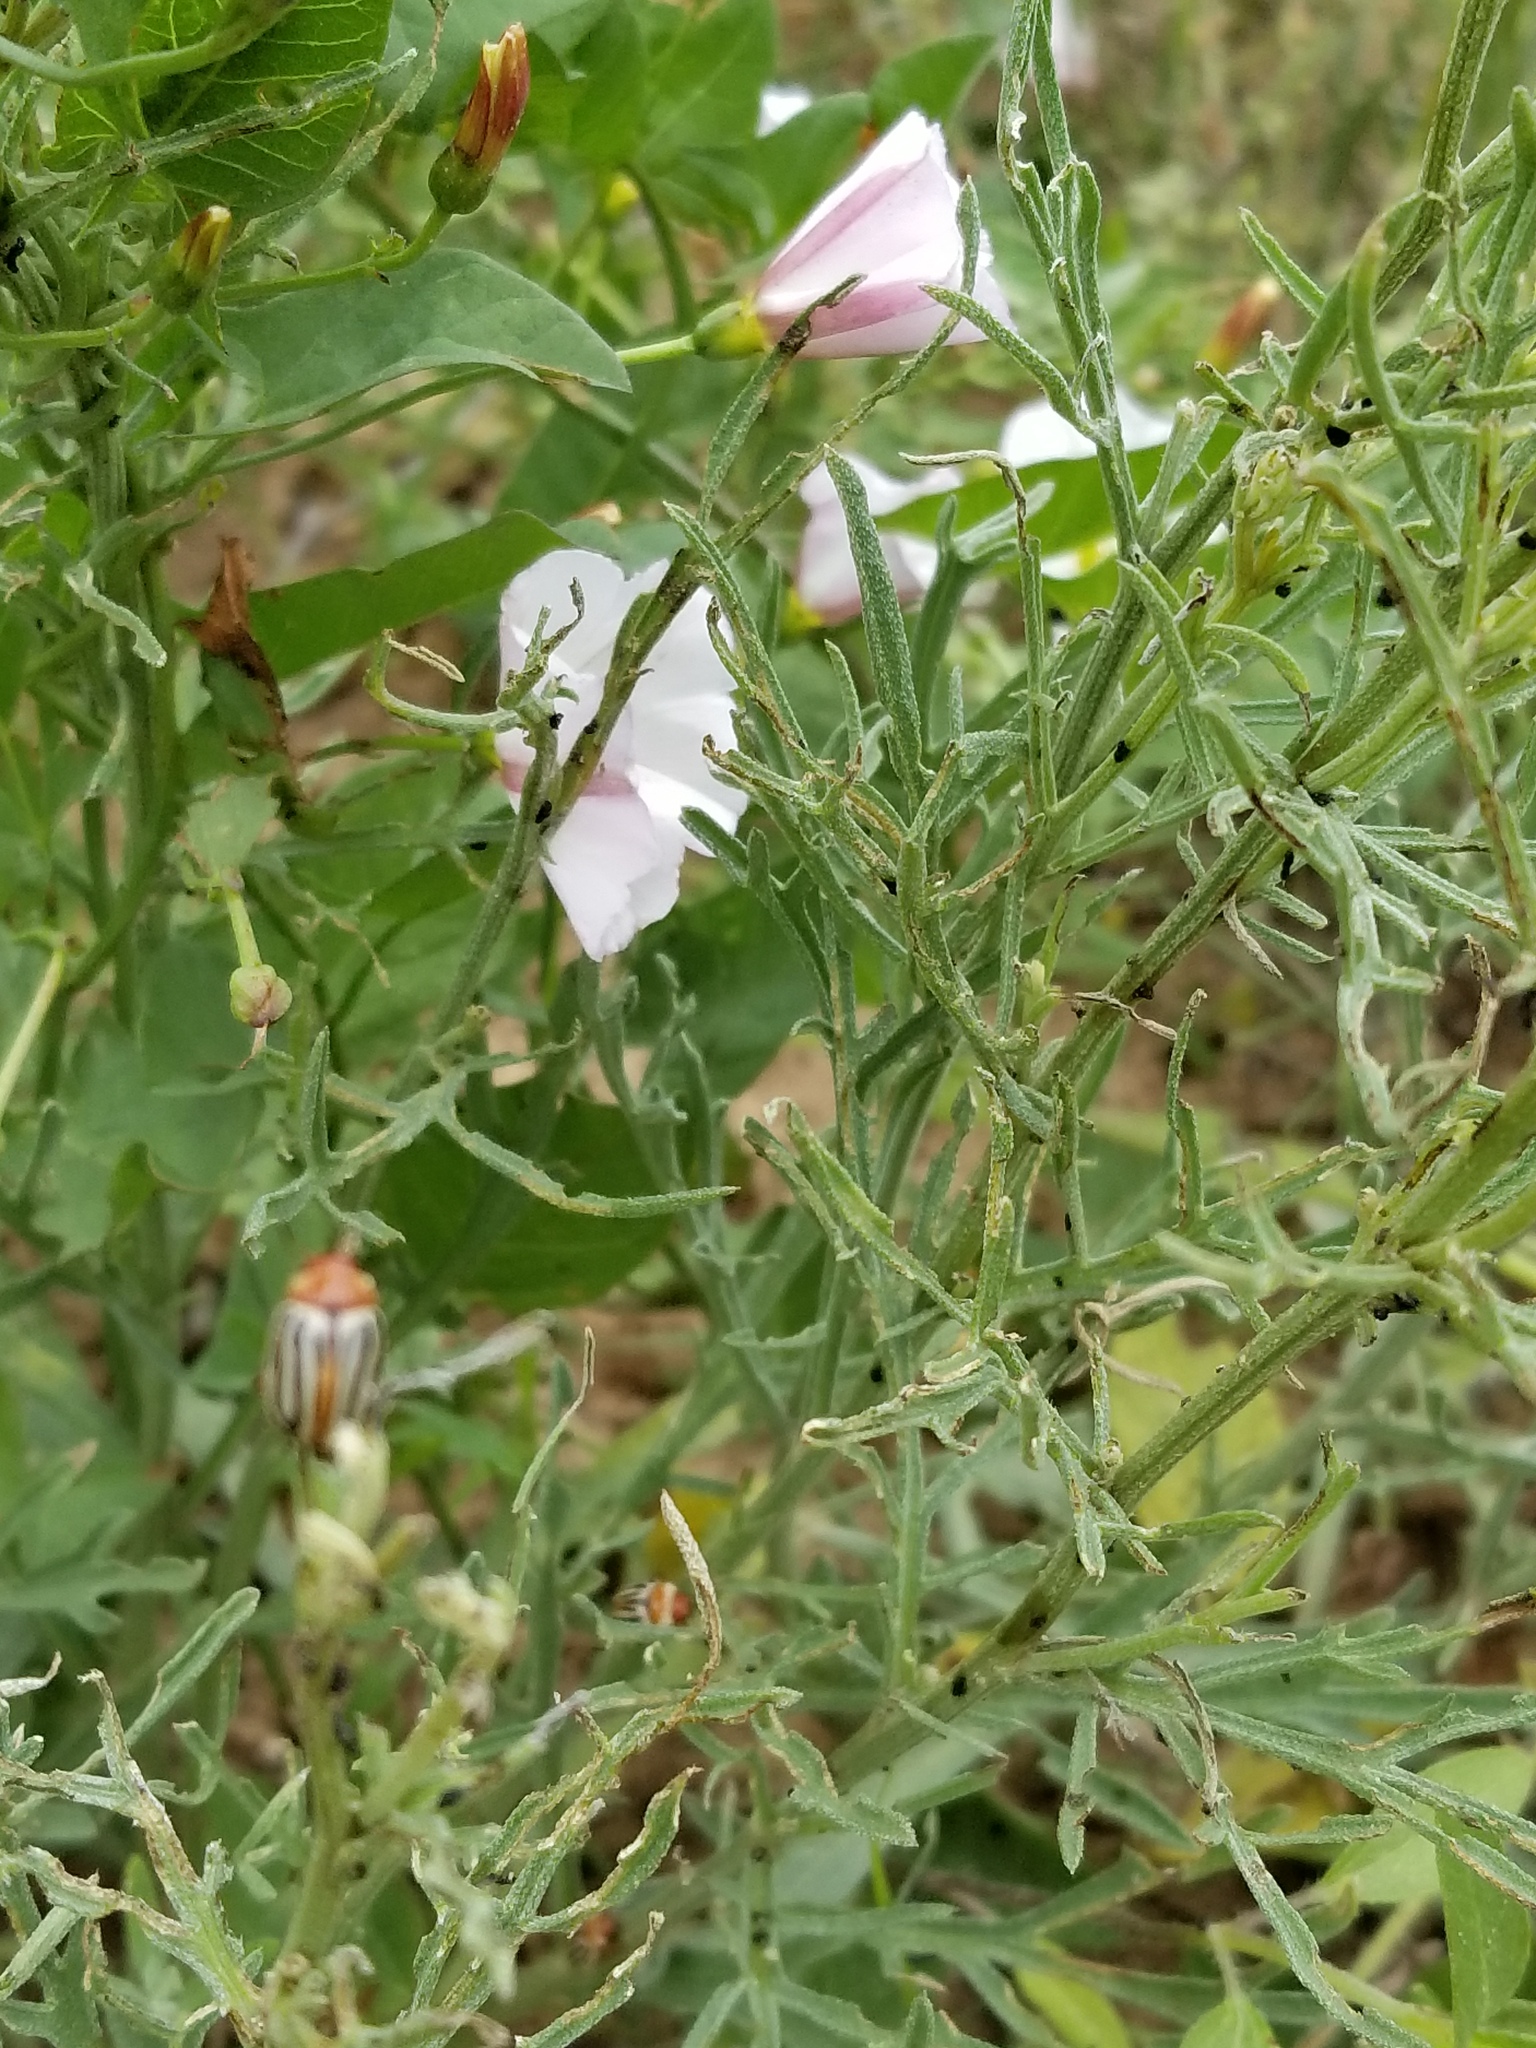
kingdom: Animalia
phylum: Arthropoda
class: Insecta
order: Coleoptera
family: Chrysomelidae
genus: Calligrapha
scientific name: Calligrapha
